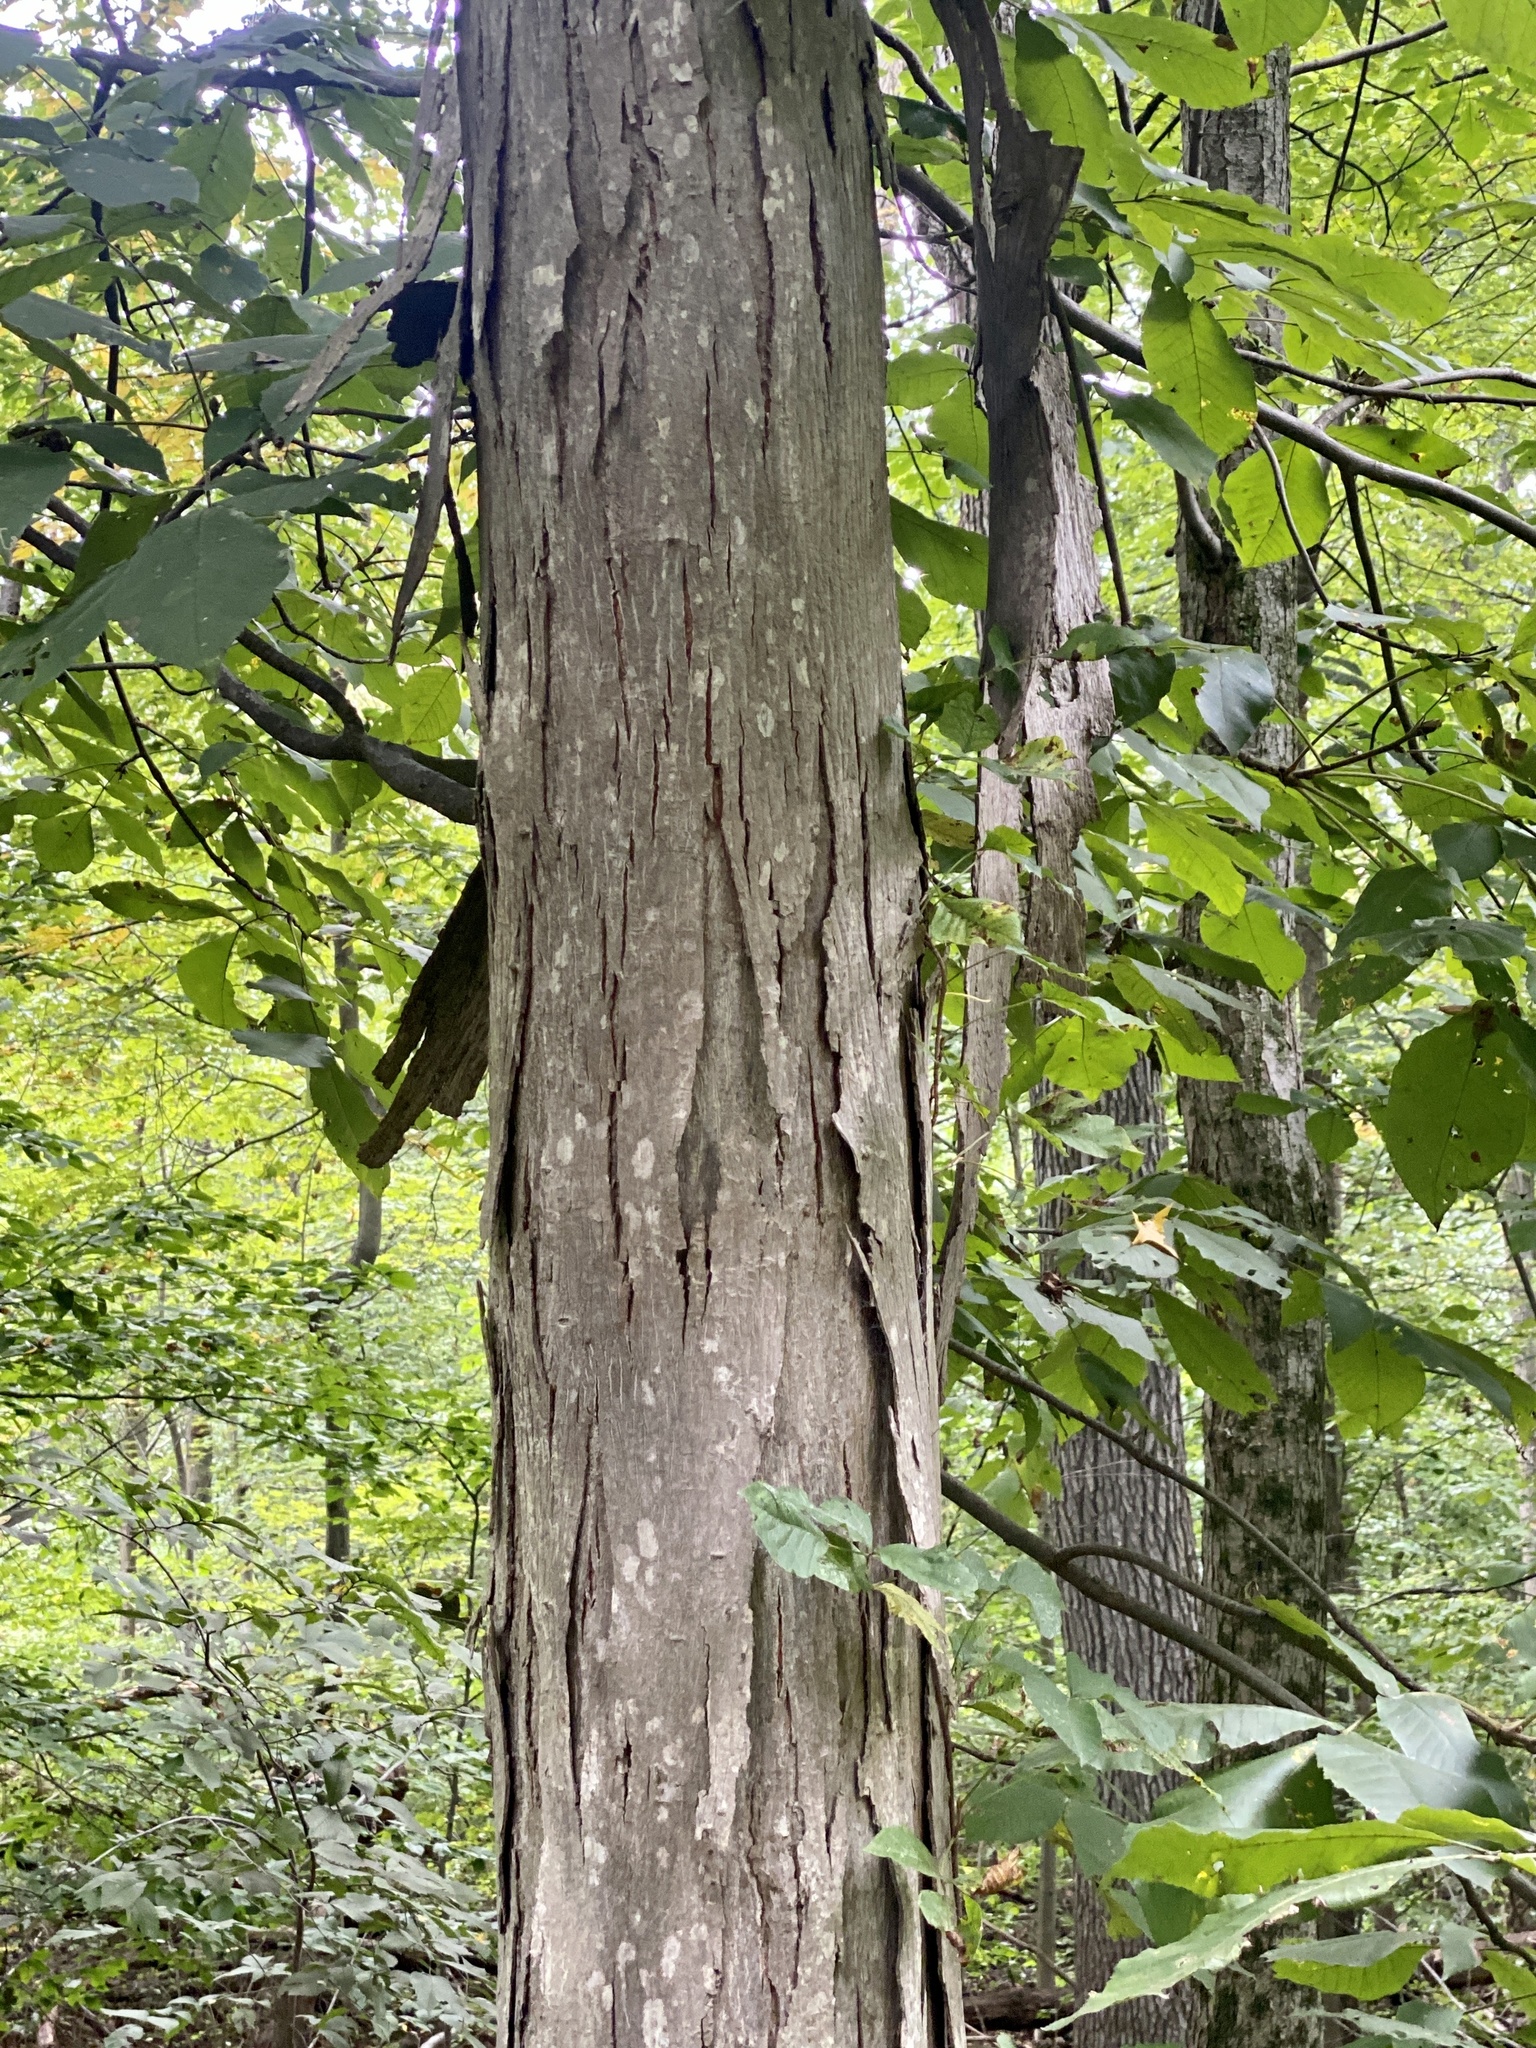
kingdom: Plantae
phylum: Tracheophyta
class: Magnoliopsida
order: Fagales
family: Juglandaceae
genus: Carya
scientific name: Carya ovata
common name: Shagbark hickory
